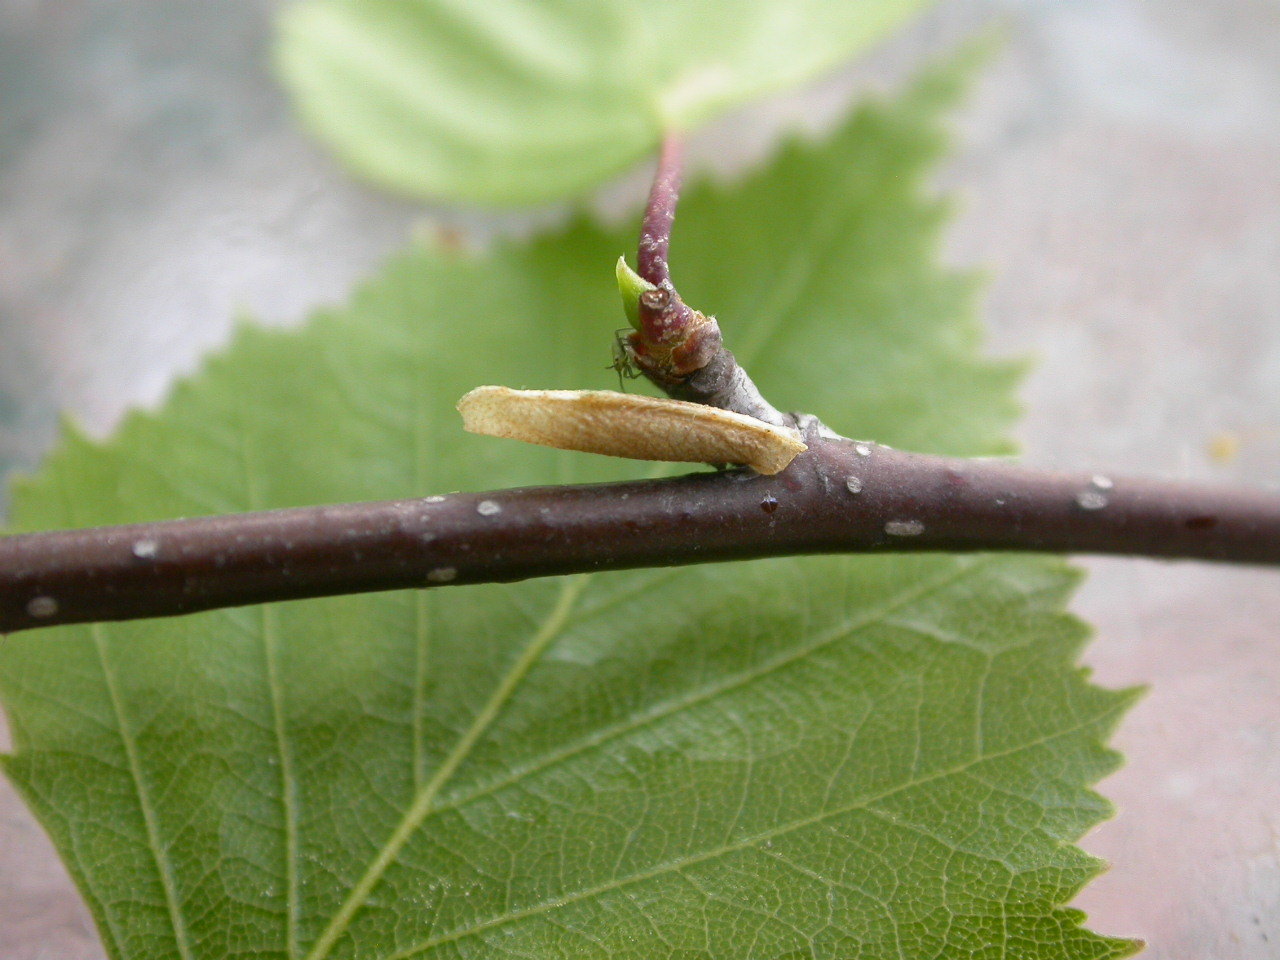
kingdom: Animalia
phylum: Arthropoda
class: Insecta
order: Lepidoptera
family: Coleophoridae
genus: Coleophora
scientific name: Coleophora serratella
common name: Common case-bearer
